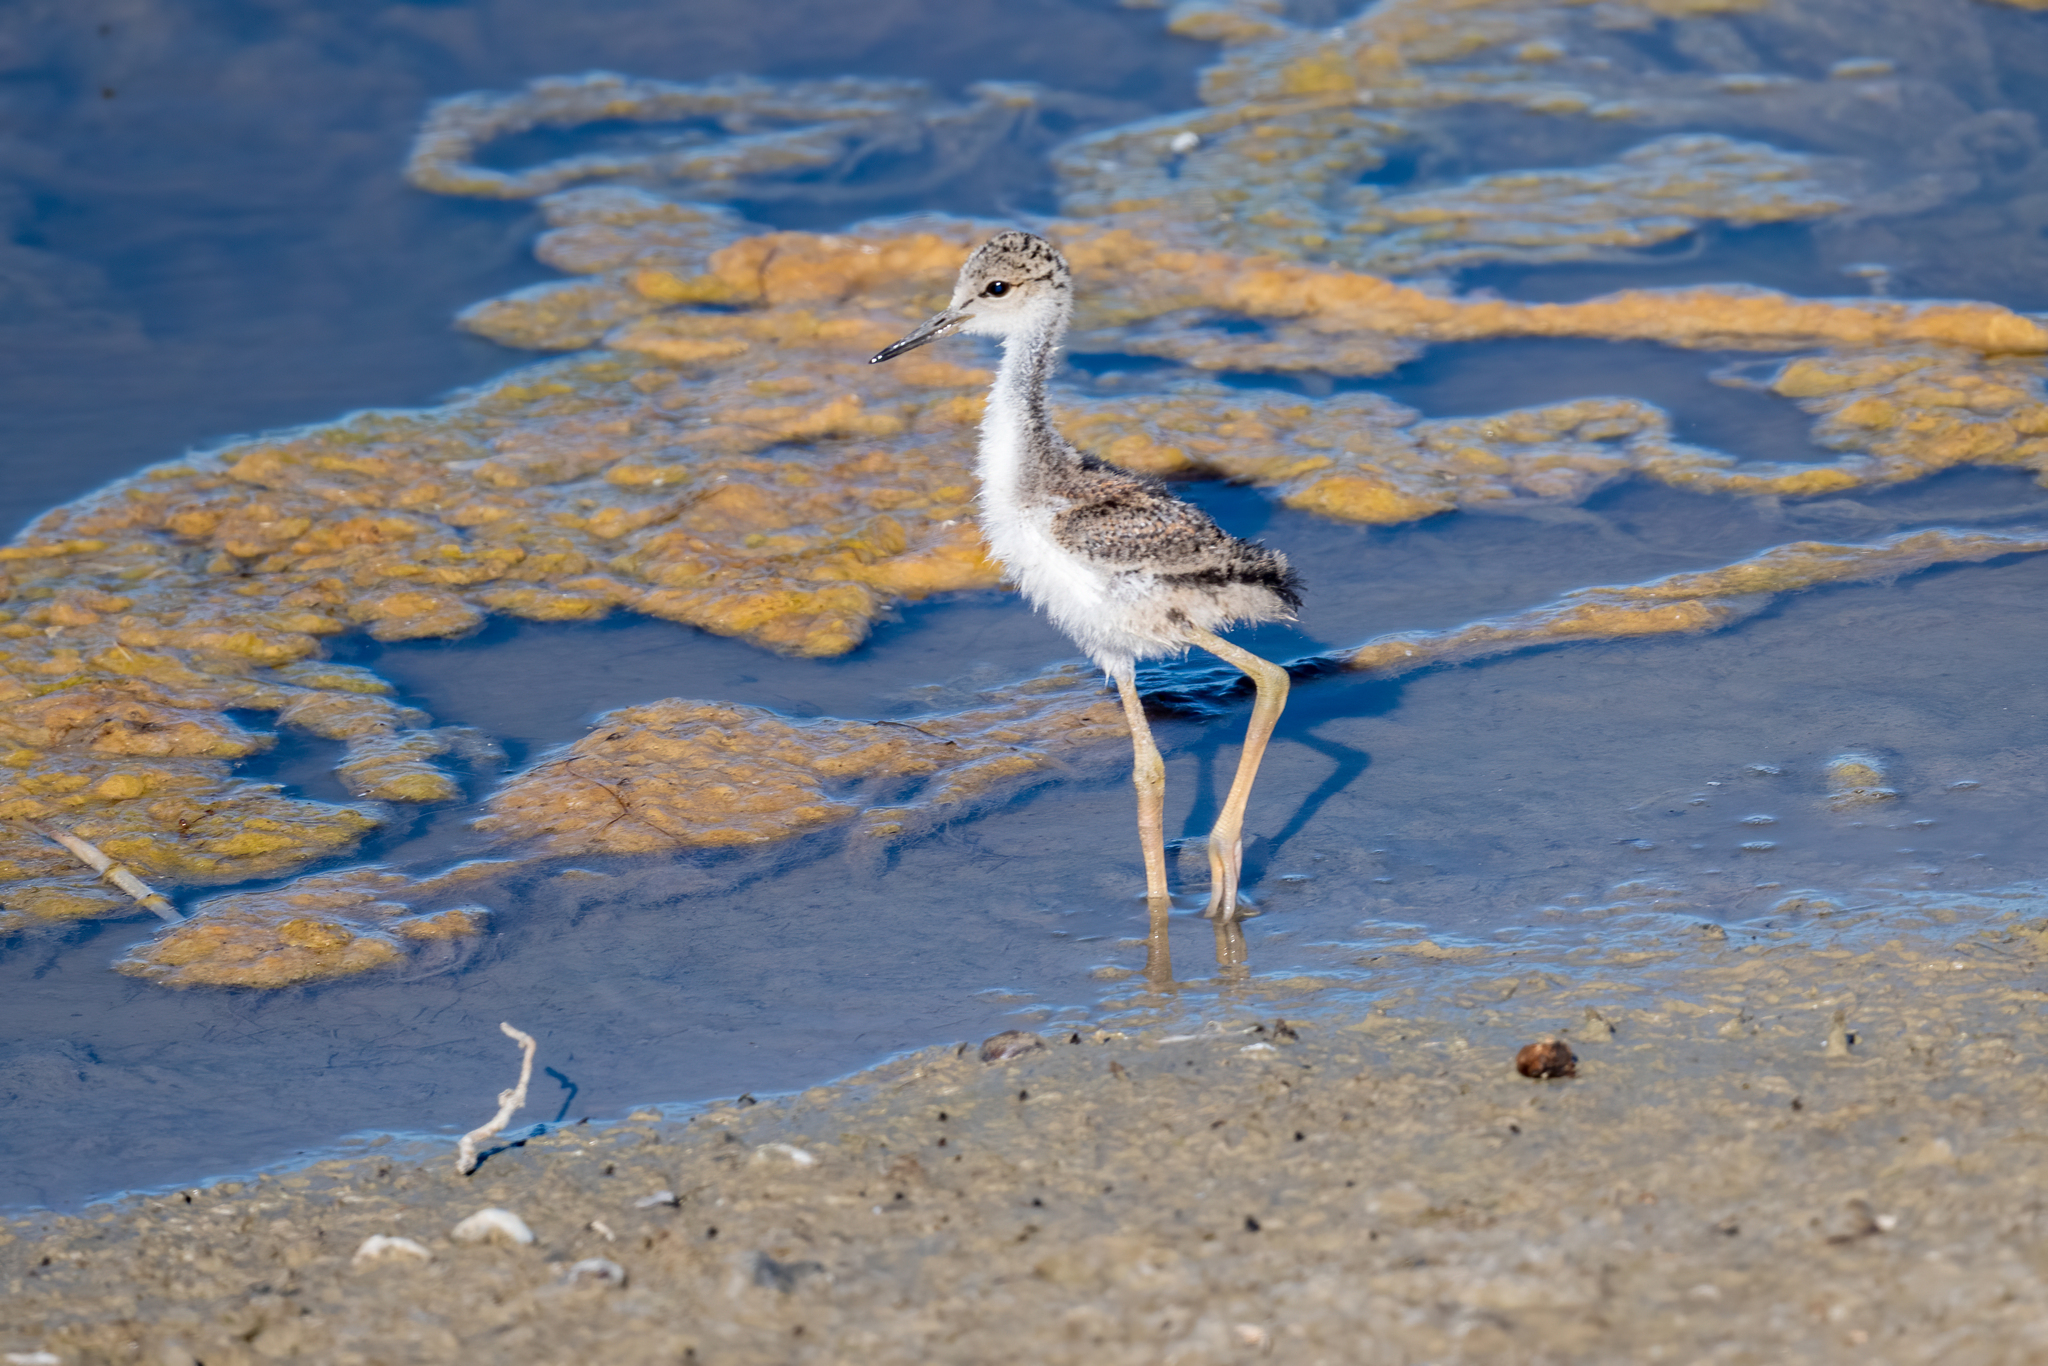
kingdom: Animalia
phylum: Chordata
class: Aves
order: Charadriiformes
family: Recurvirostridae
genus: Himantopus
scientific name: Himantopus mexicanus
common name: Black-necked stilt
